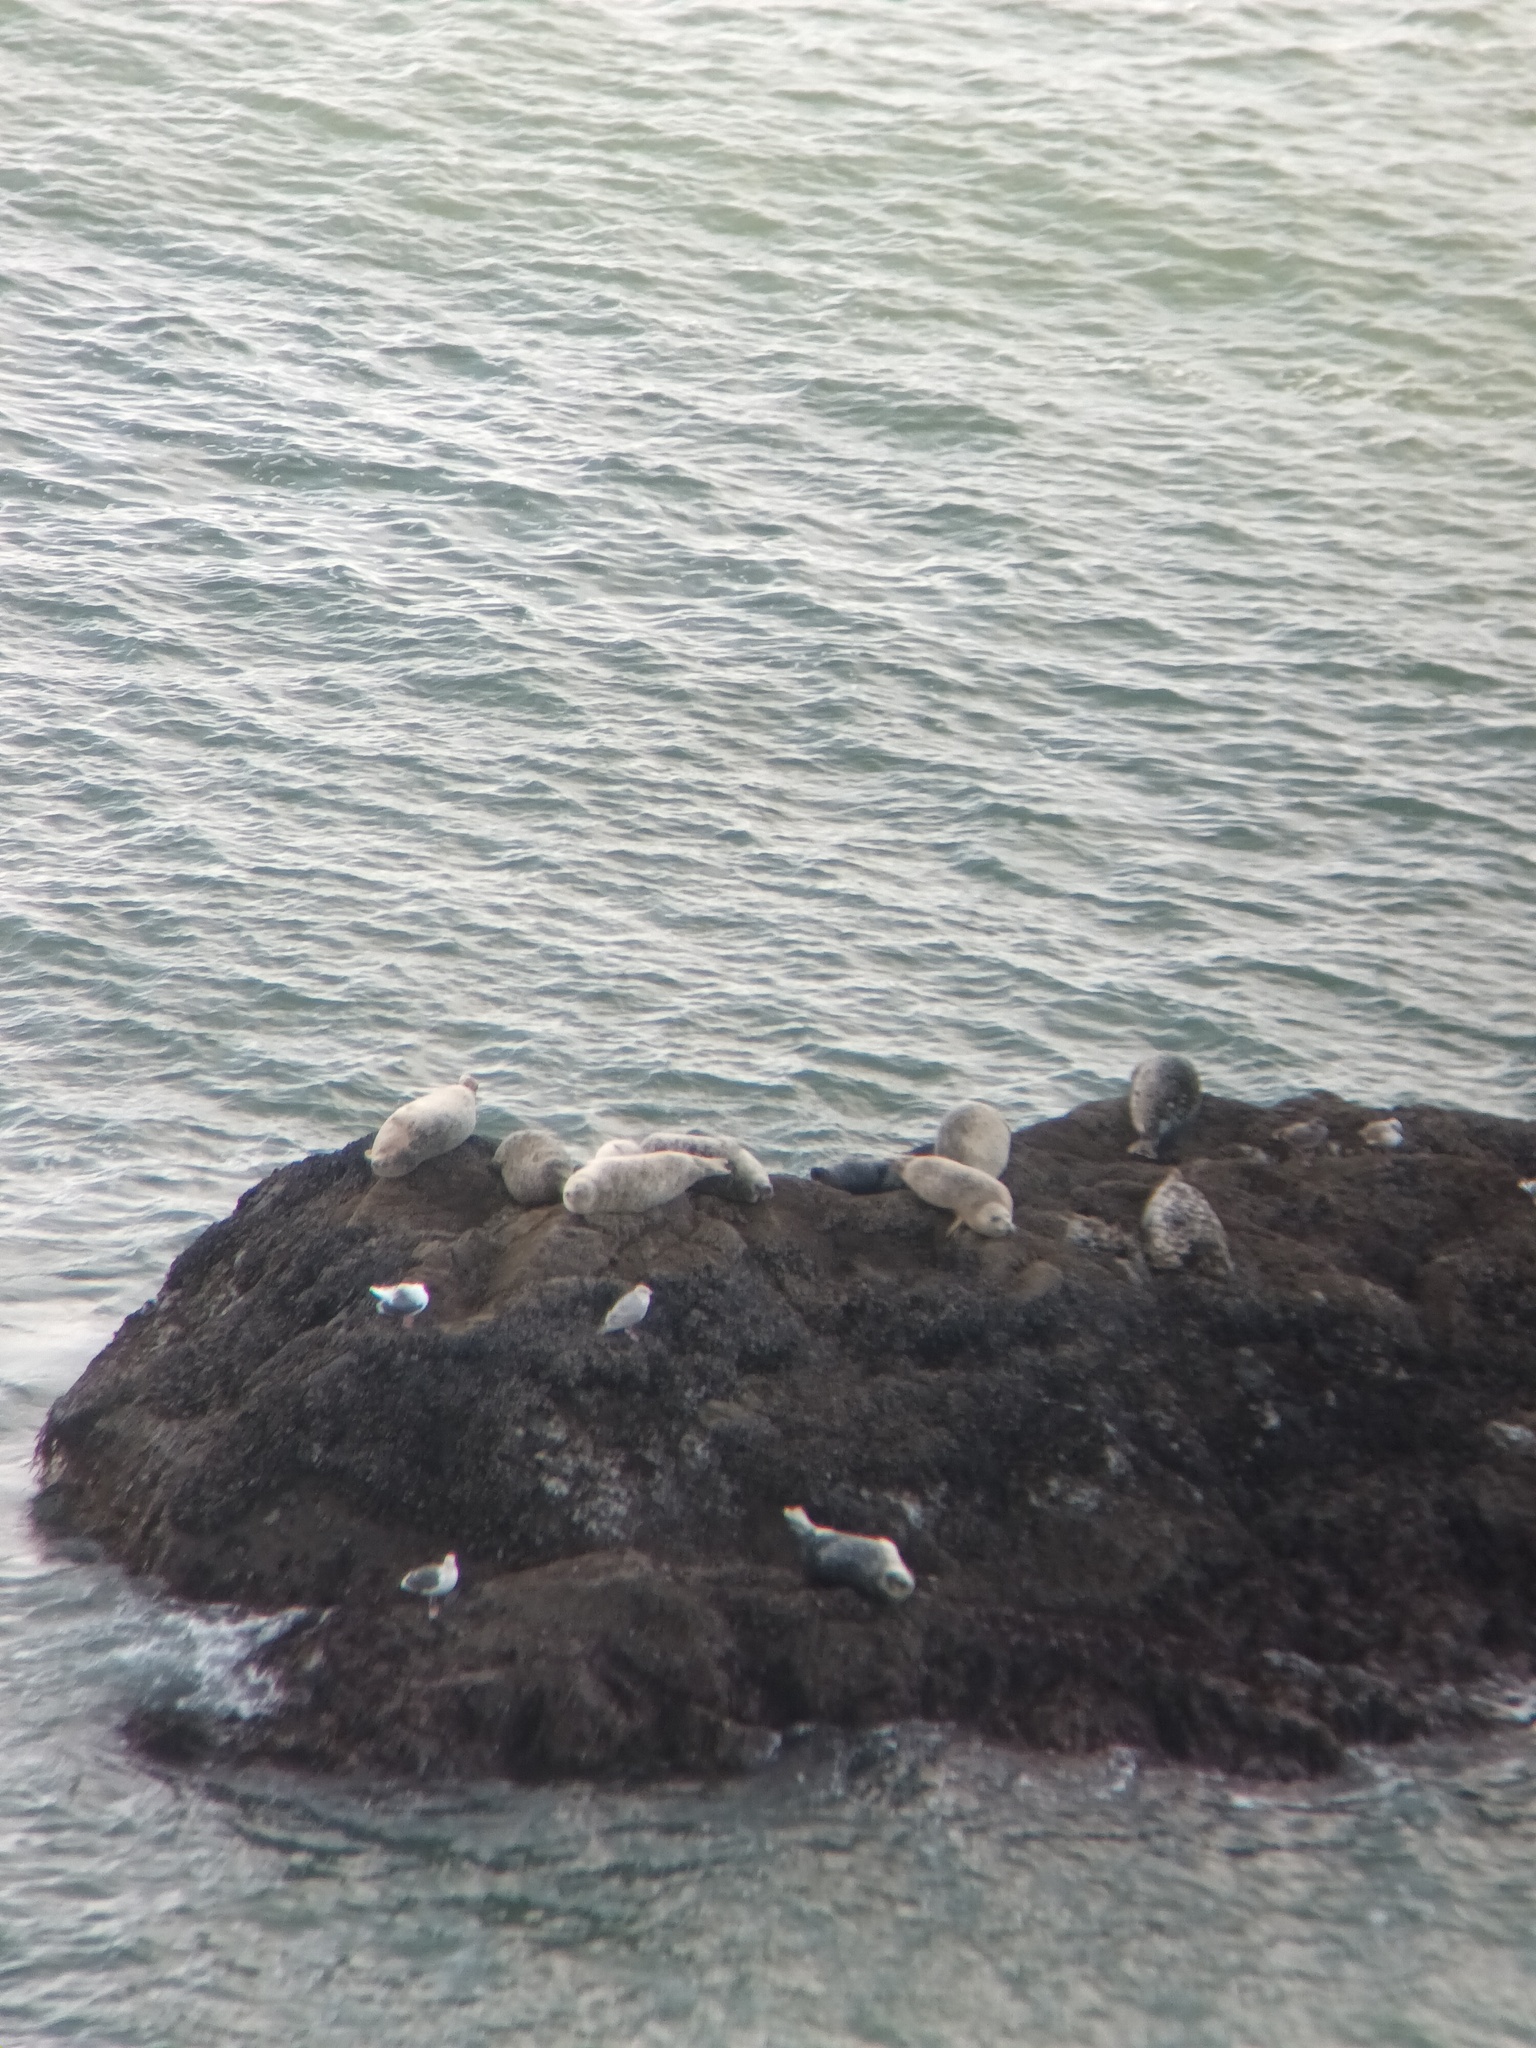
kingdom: Animalia
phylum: Chordata
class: Mammalia
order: Carnivora
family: Phocidae
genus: Phoca
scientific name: Phoca vitulina
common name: Harbor seal
